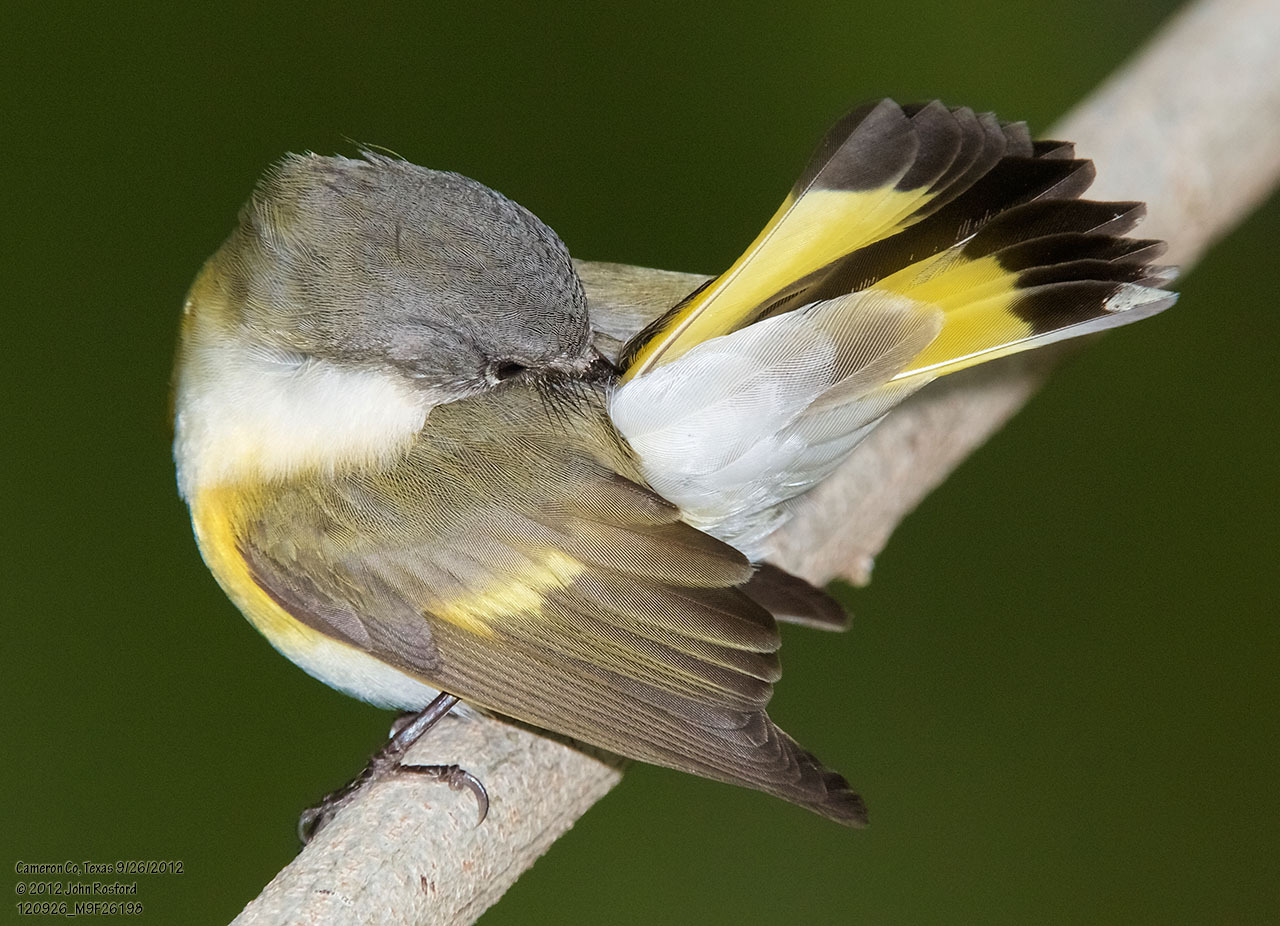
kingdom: Animalia
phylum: Chordata
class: Aves
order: Passeriformes
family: Parulidae
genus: Setophaga
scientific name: Setophaga ruticilla
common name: American redstart
